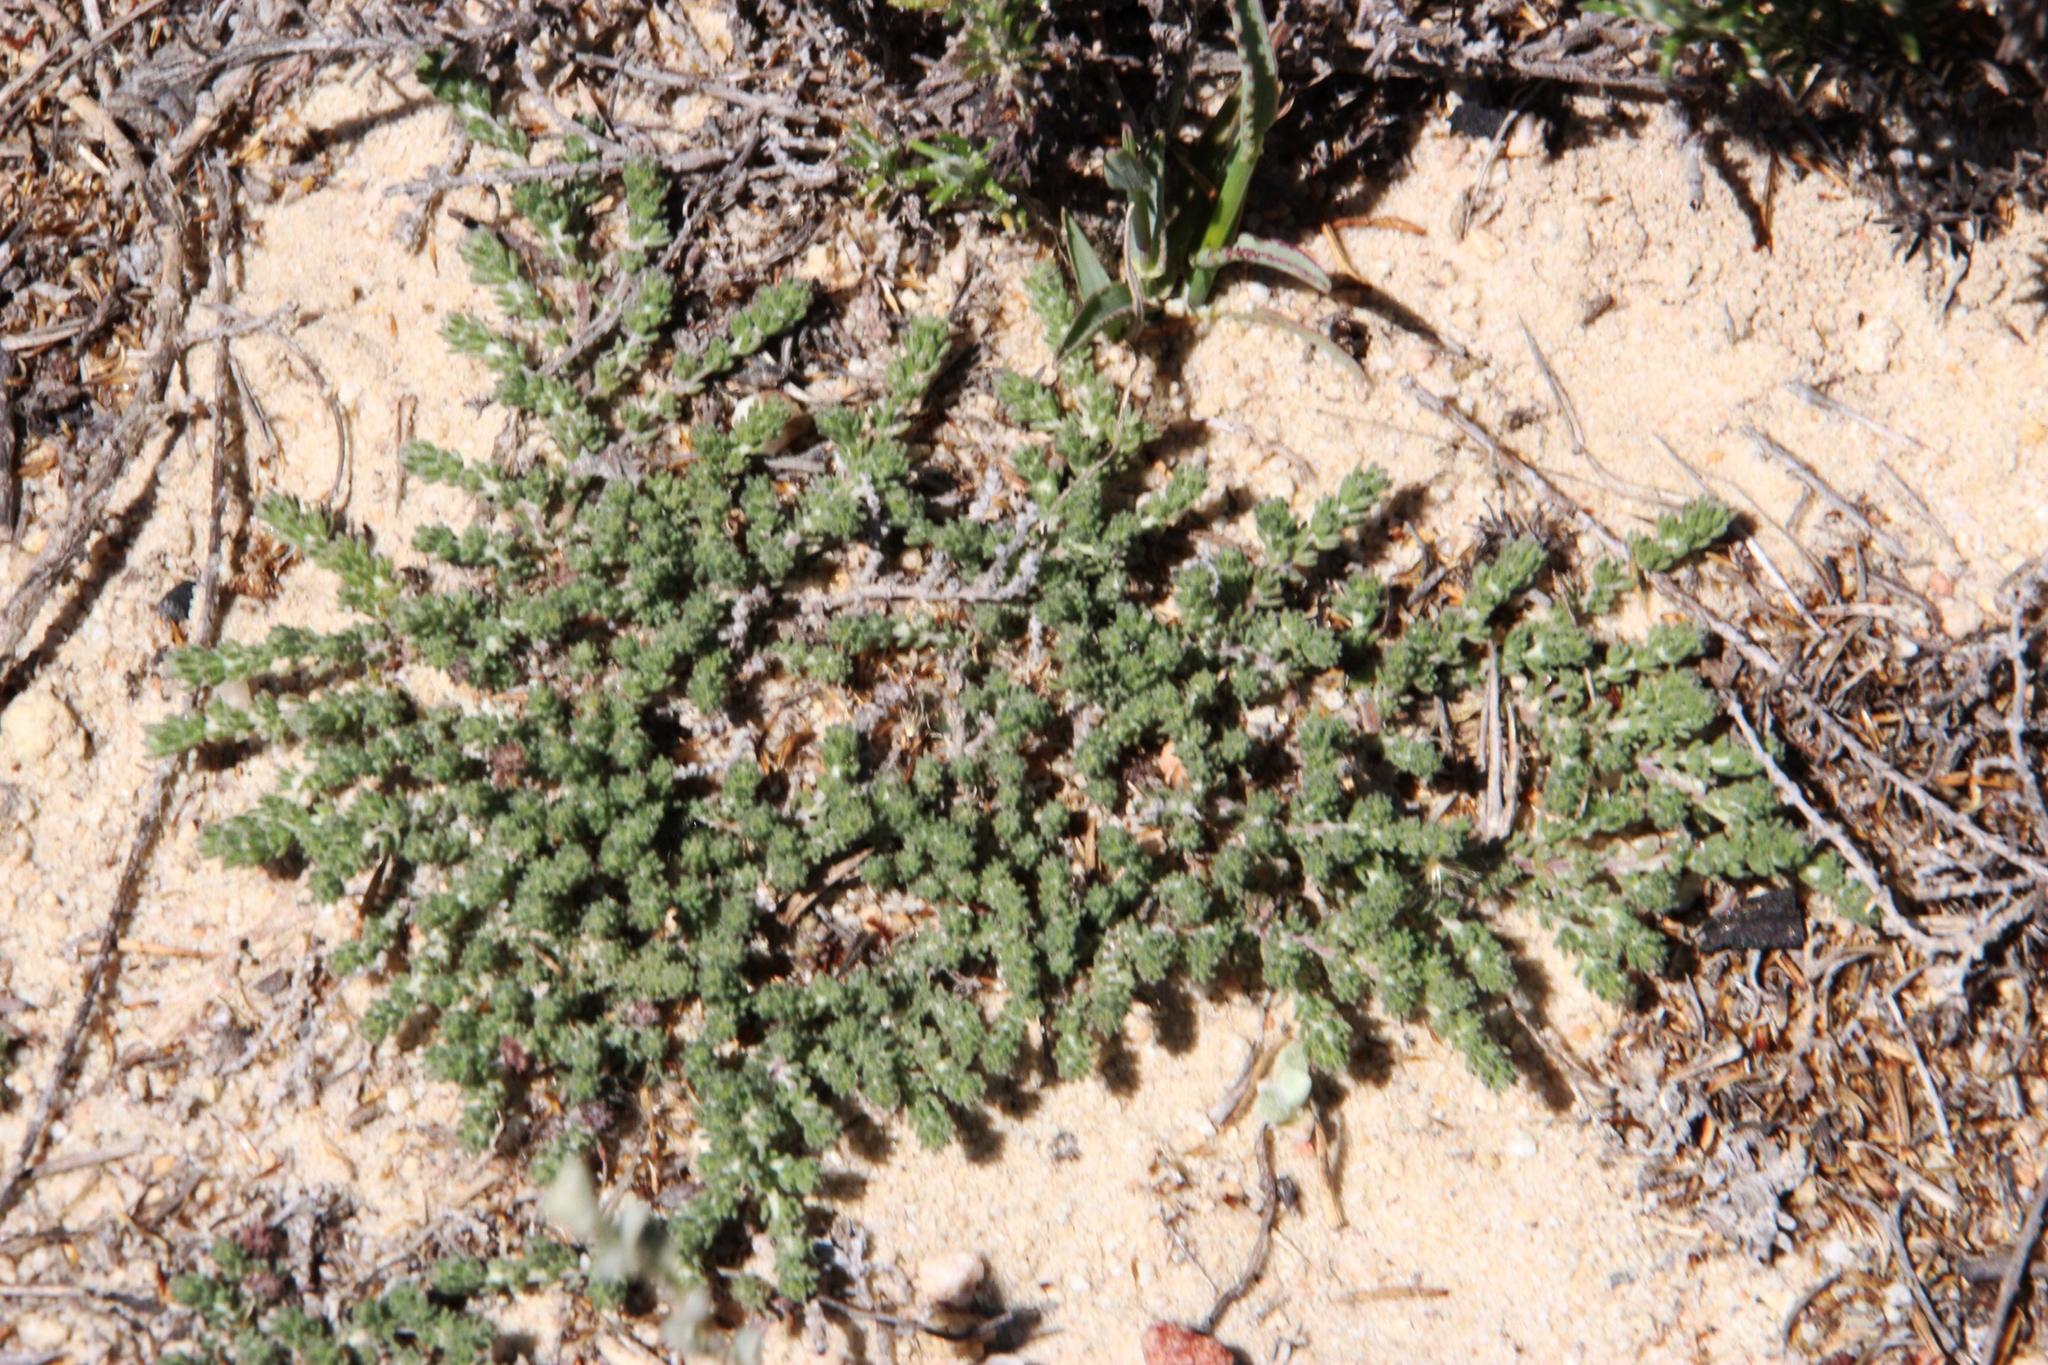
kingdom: Plantae
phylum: Tracheophyta
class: Magnoliopsida
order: Fabales
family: Fabaceae
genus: Aspalathus
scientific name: Aspalathus hispida
